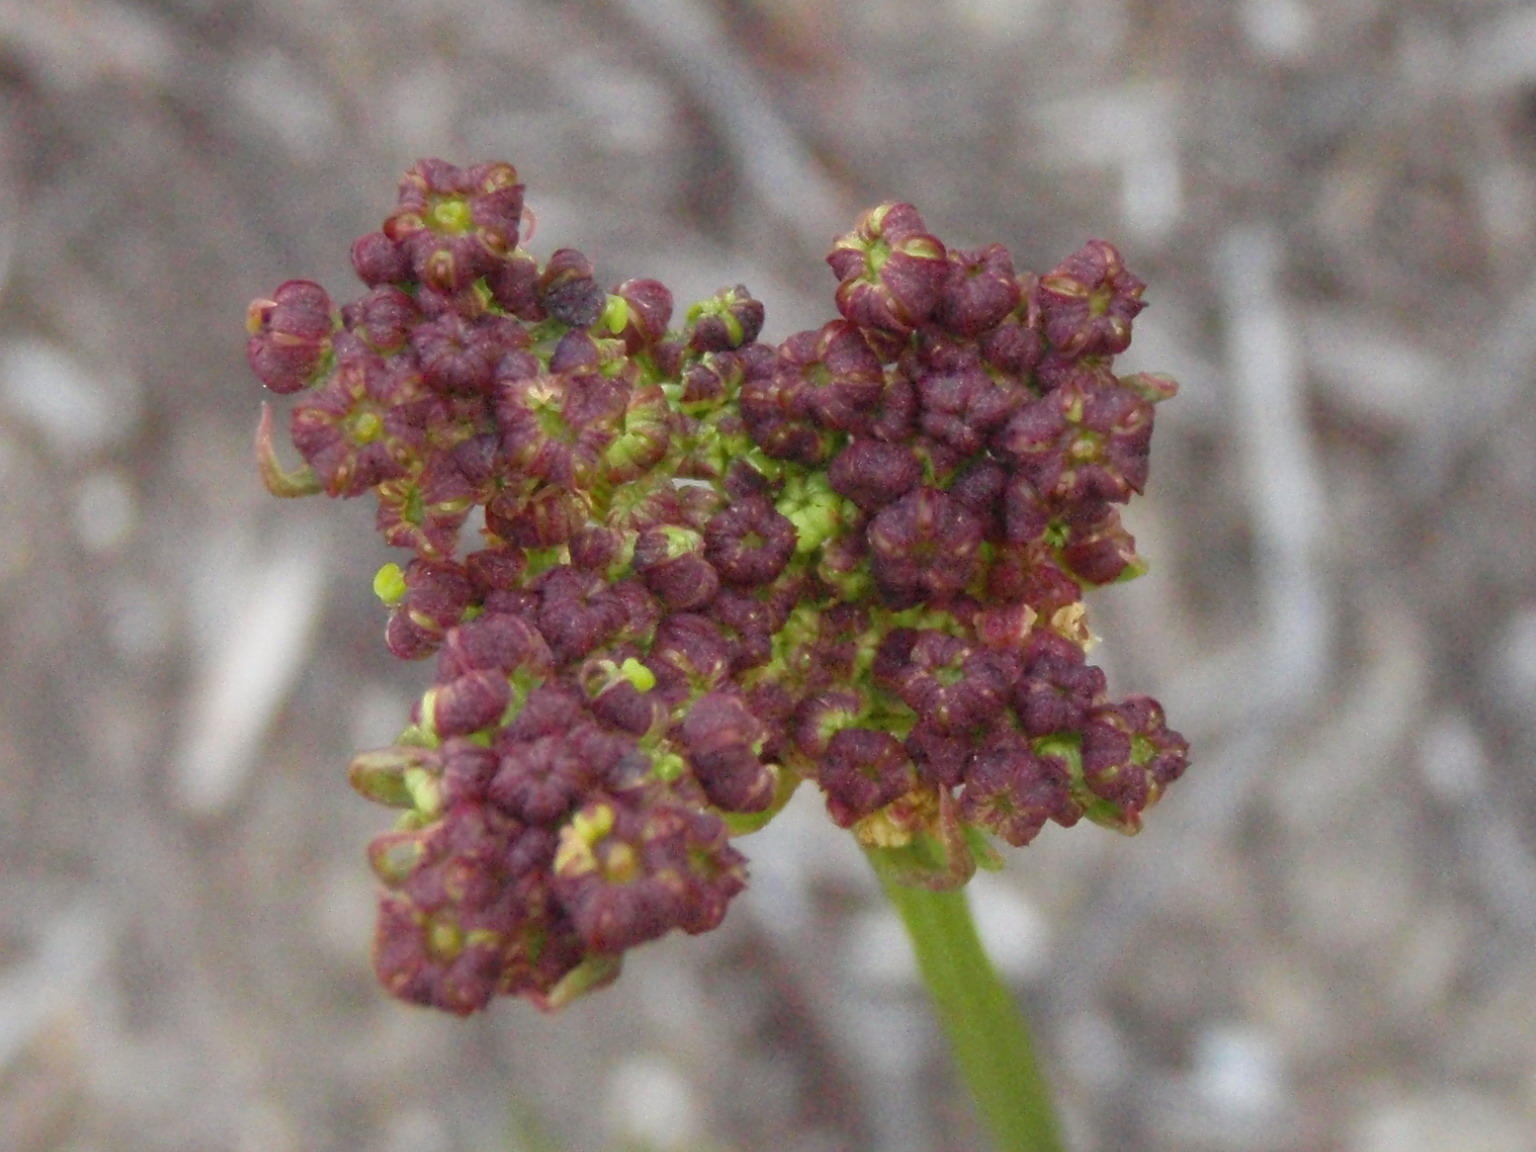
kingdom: Plantae
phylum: Tracheophyta
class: Magnoliopsida
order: Apiales
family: Apiaceae
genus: Nanobubon
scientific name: Nanobubon capillaceum
